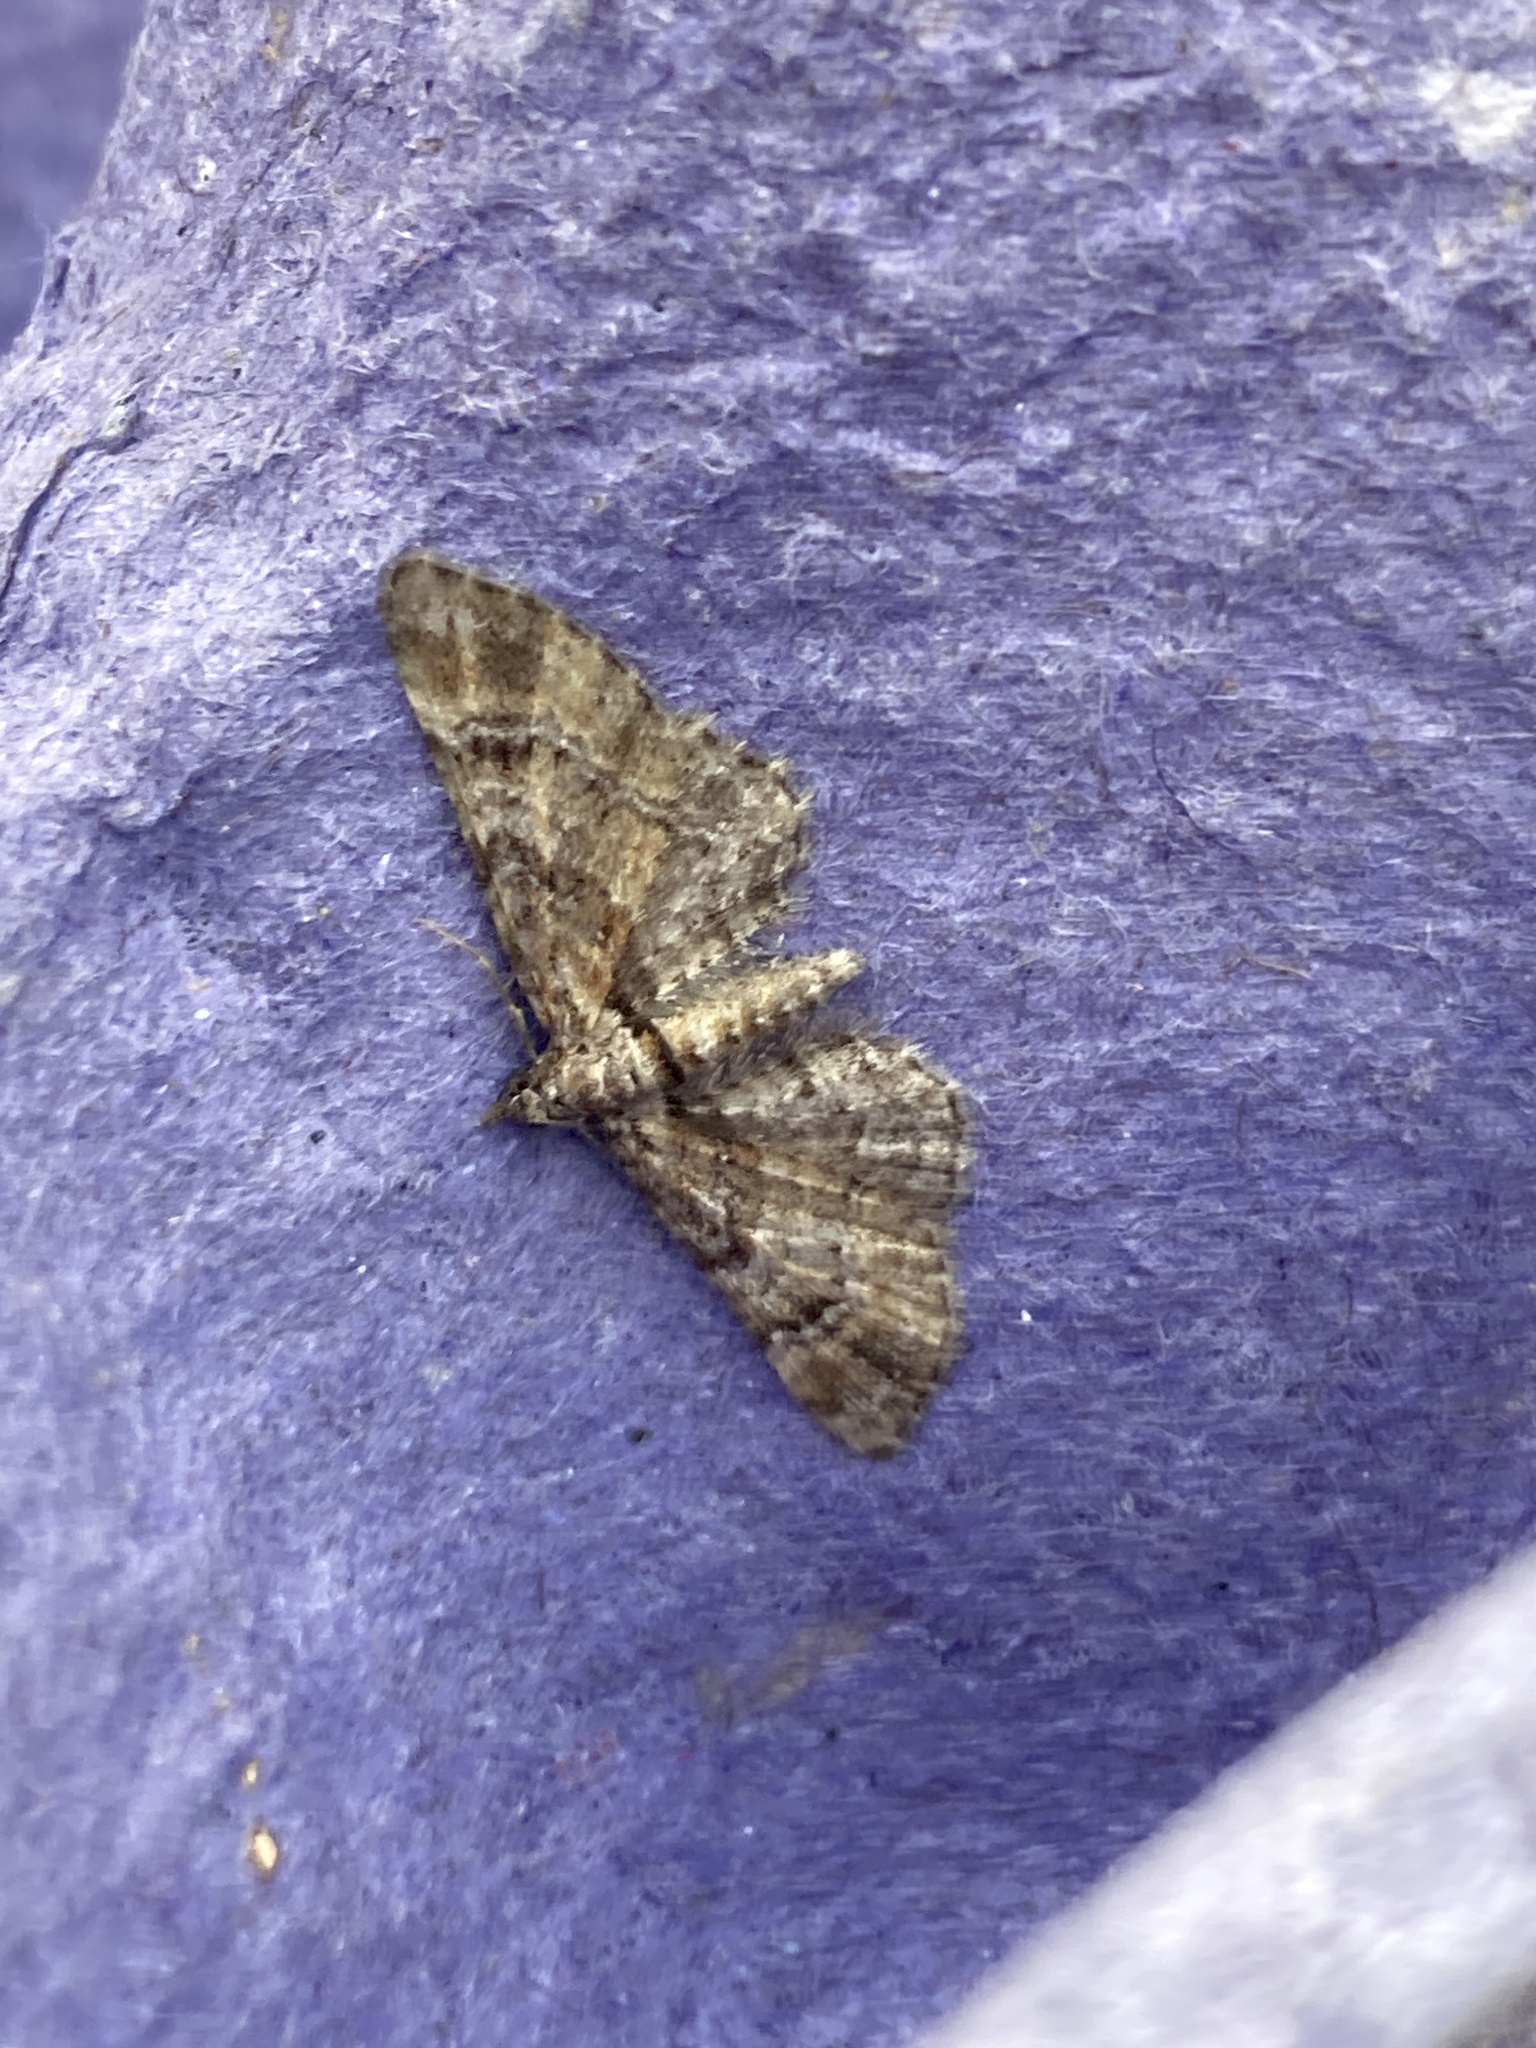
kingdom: Animalia
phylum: Arthropoda
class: Insecta
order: Lepidoptera
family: Geometridae
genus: Gymnoscelis
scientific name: Gymnoscelis rufifasciata
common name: Double-striped pug
